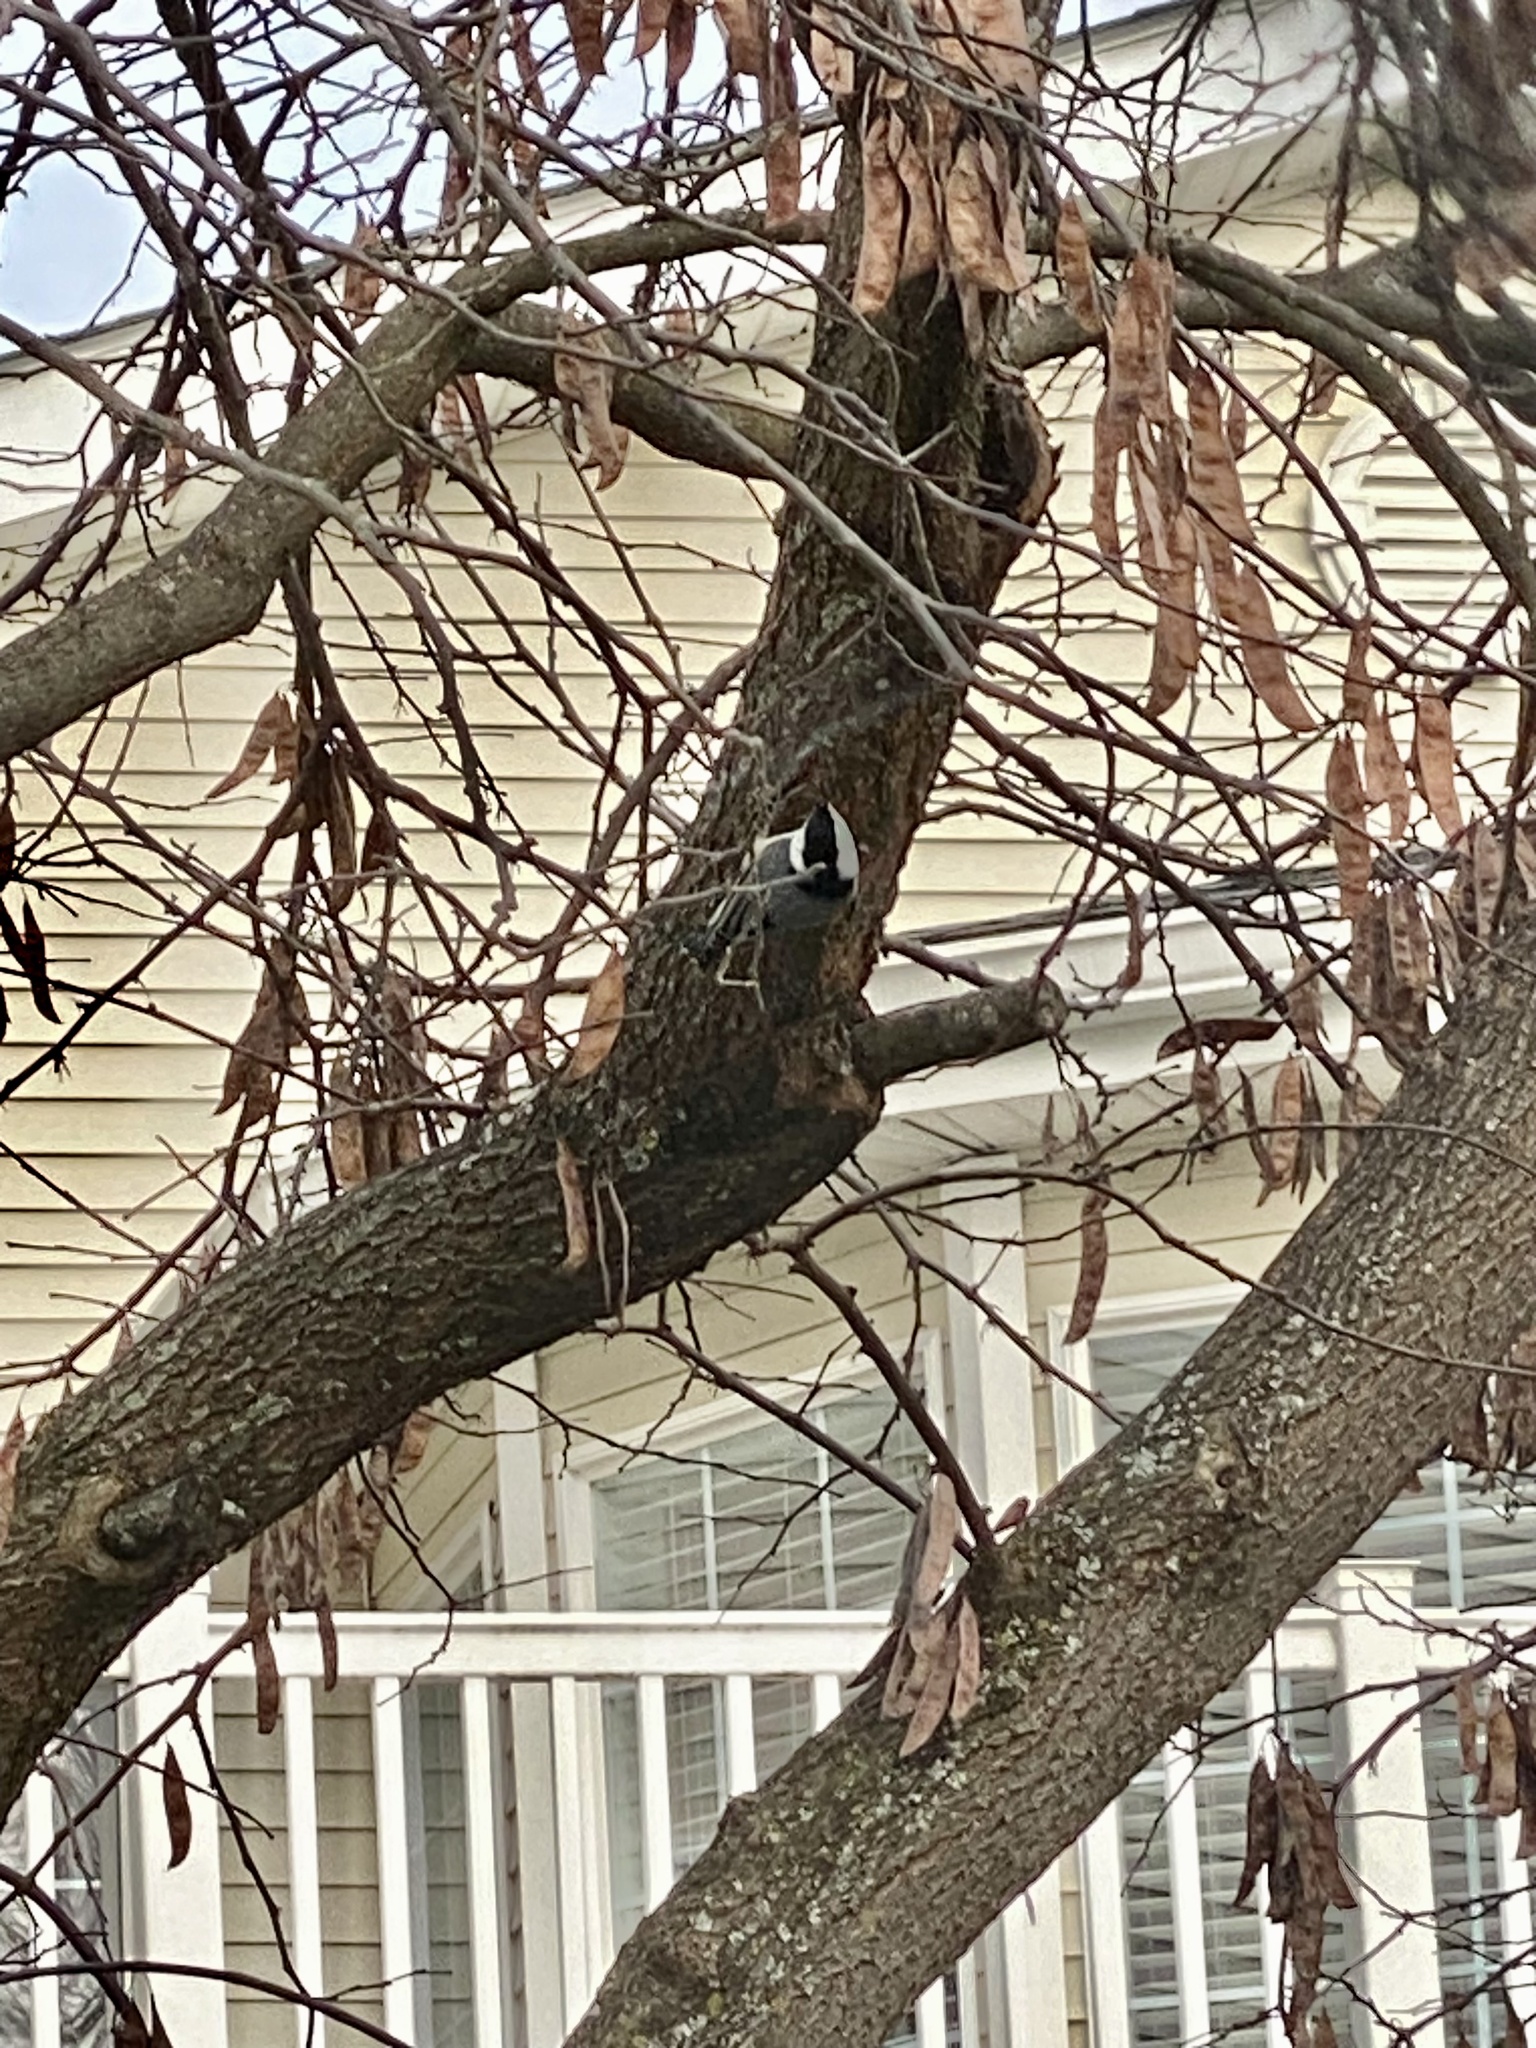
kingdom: Animalia
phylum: Chordata
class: Aves
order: Passeriformes
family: Sittidae
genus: Sitta
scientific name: Sitta carolinensis
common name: White-breasted nuthatch
